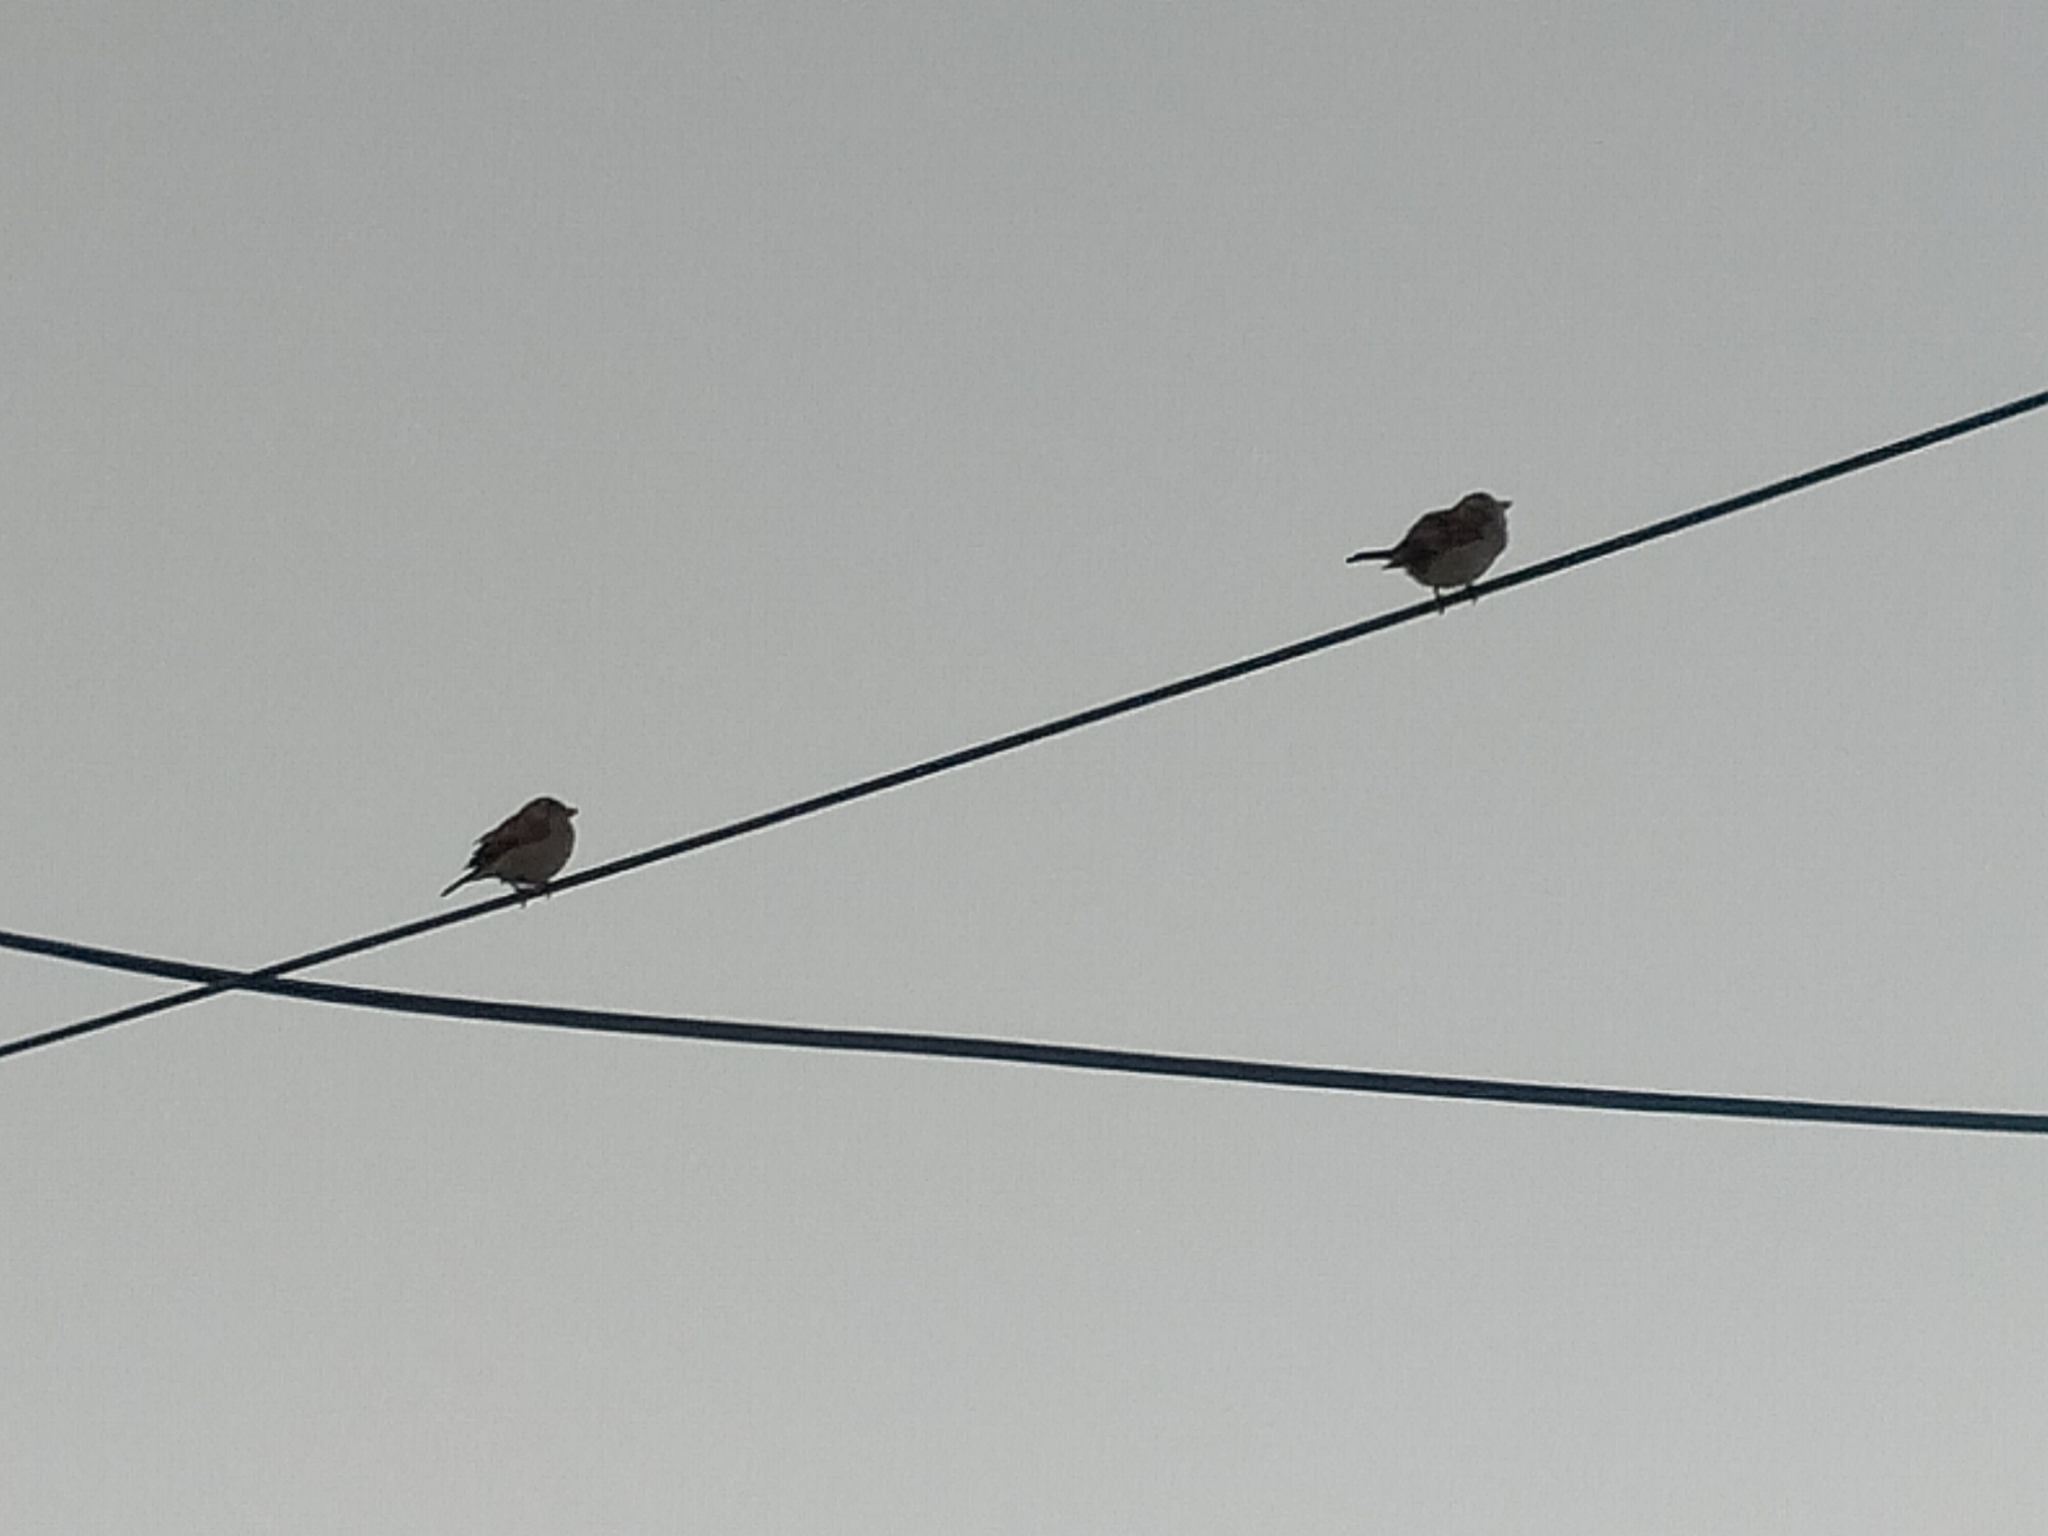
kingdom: Animalia
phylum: Chordata
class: Aves
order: Passeriformes
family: Passeridae
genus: Passer
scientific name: Passer domesticus
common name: House sparrow
